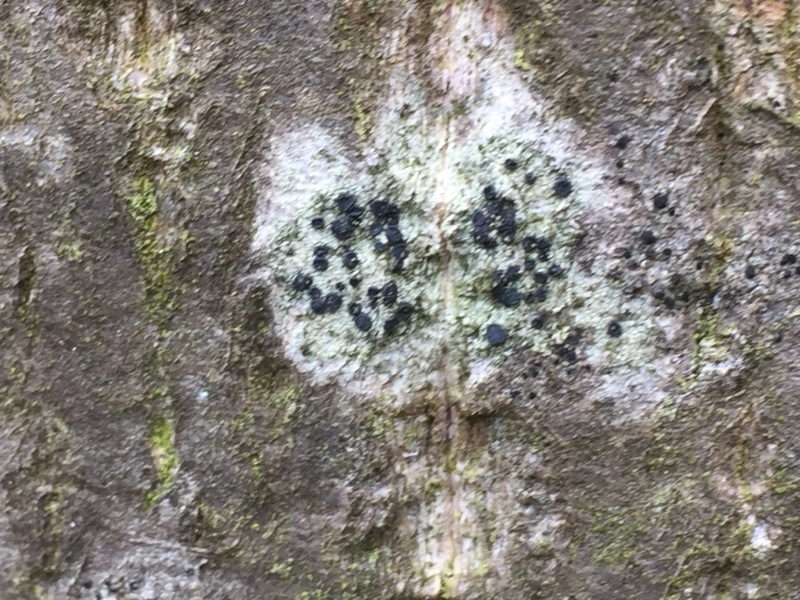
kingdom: Fungi
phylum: Ascomycota
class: Lecanoromycetes
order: Lecanorales
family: Lecanoraceae
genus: Lecidella
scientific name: Lecidella elaeochroma
